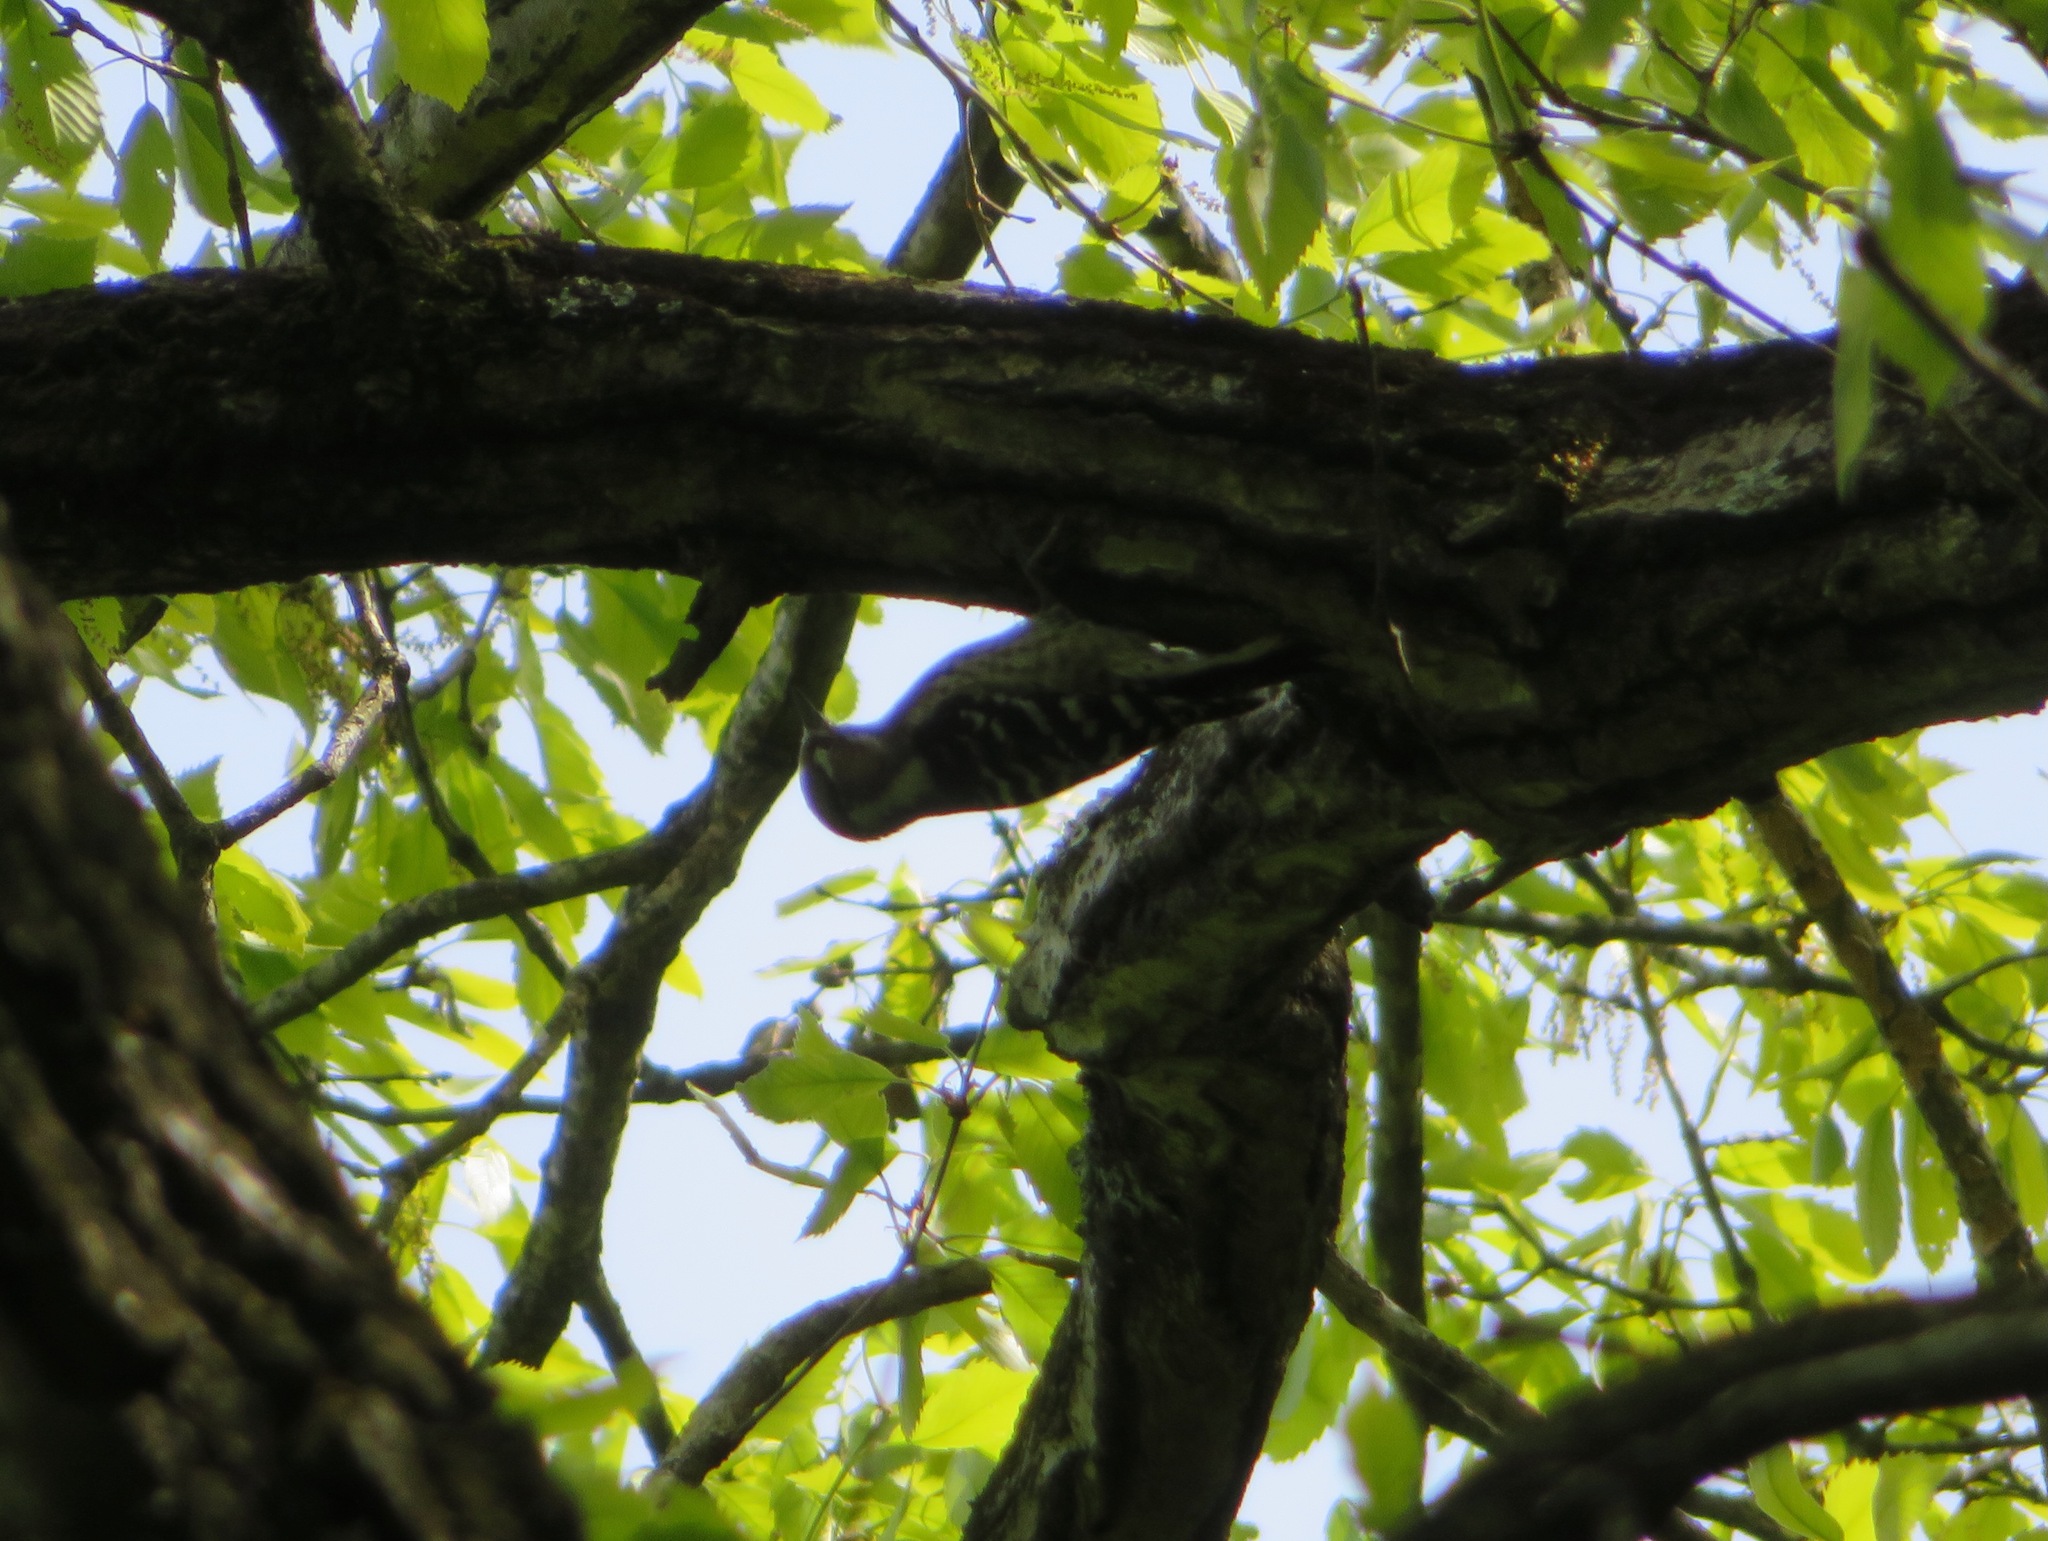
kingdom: Animalia
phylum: Chordata
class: Aves
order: Piciformes
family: Picidae
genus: Yungipicus
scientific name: Yungipicus kizuki
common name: Japanese pygmy woodpecker
